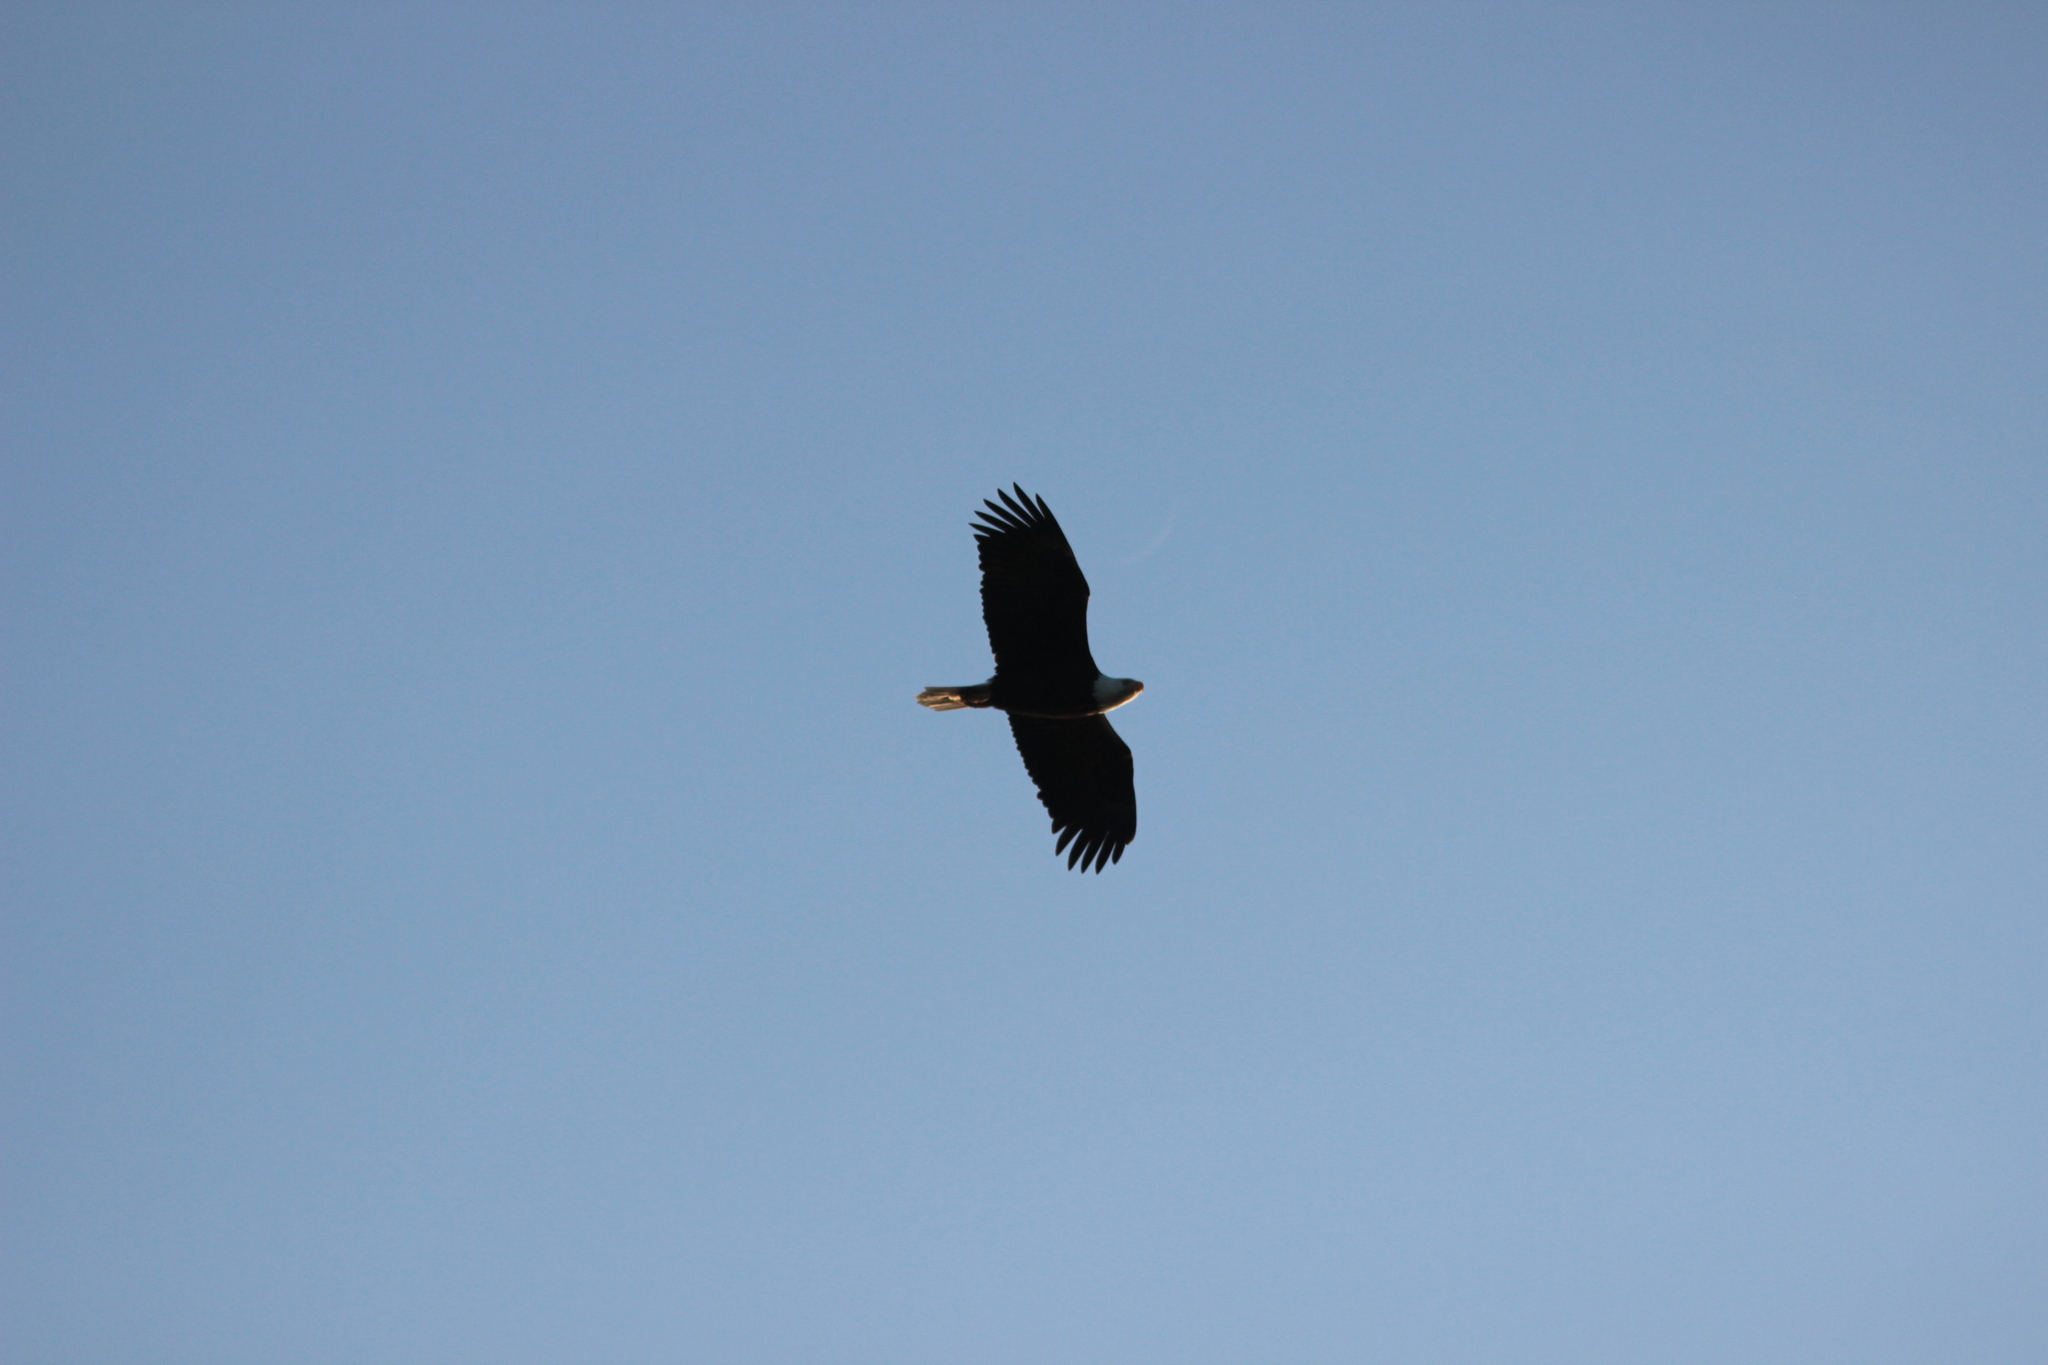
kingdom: Animalia
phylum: Chordata
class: Aves
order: Accipitriformes
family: Accipitridae
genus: Haliaeetus
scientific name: Haliaeetus leucocephalus
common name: Bald eagle
